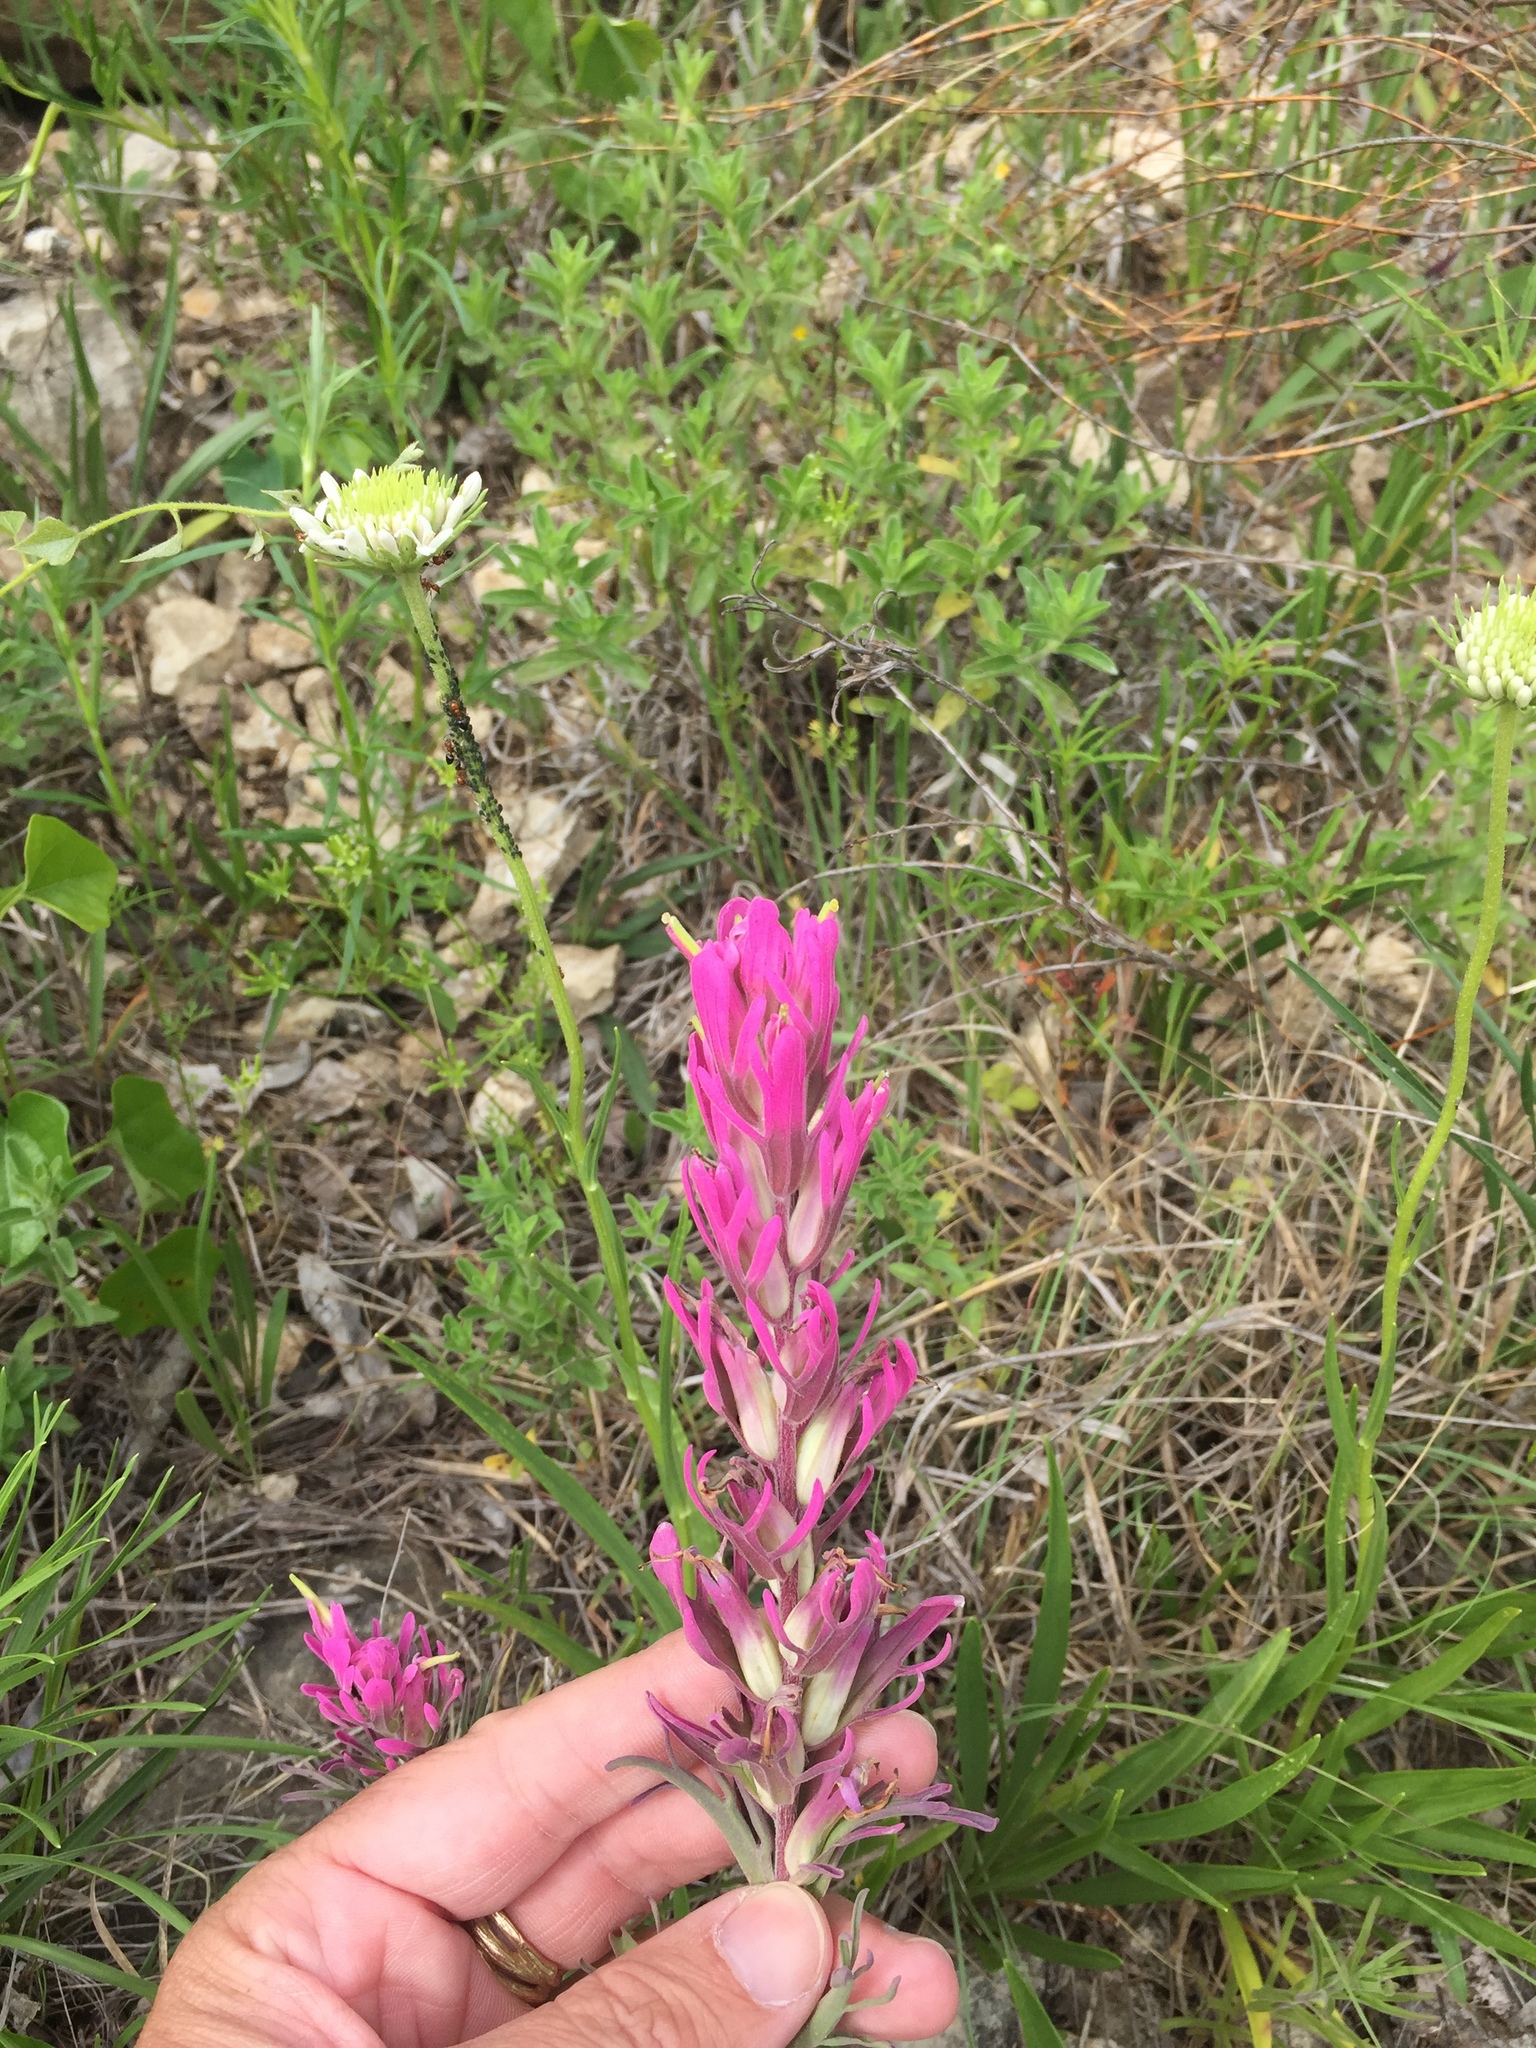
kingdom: Plantae
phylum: Tracheophyta
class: Magnoliopsida
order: Lamiales
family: Orobanchaceae
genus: Castilleja
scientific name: Castilleja purpurea
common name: Plains paintbrush
